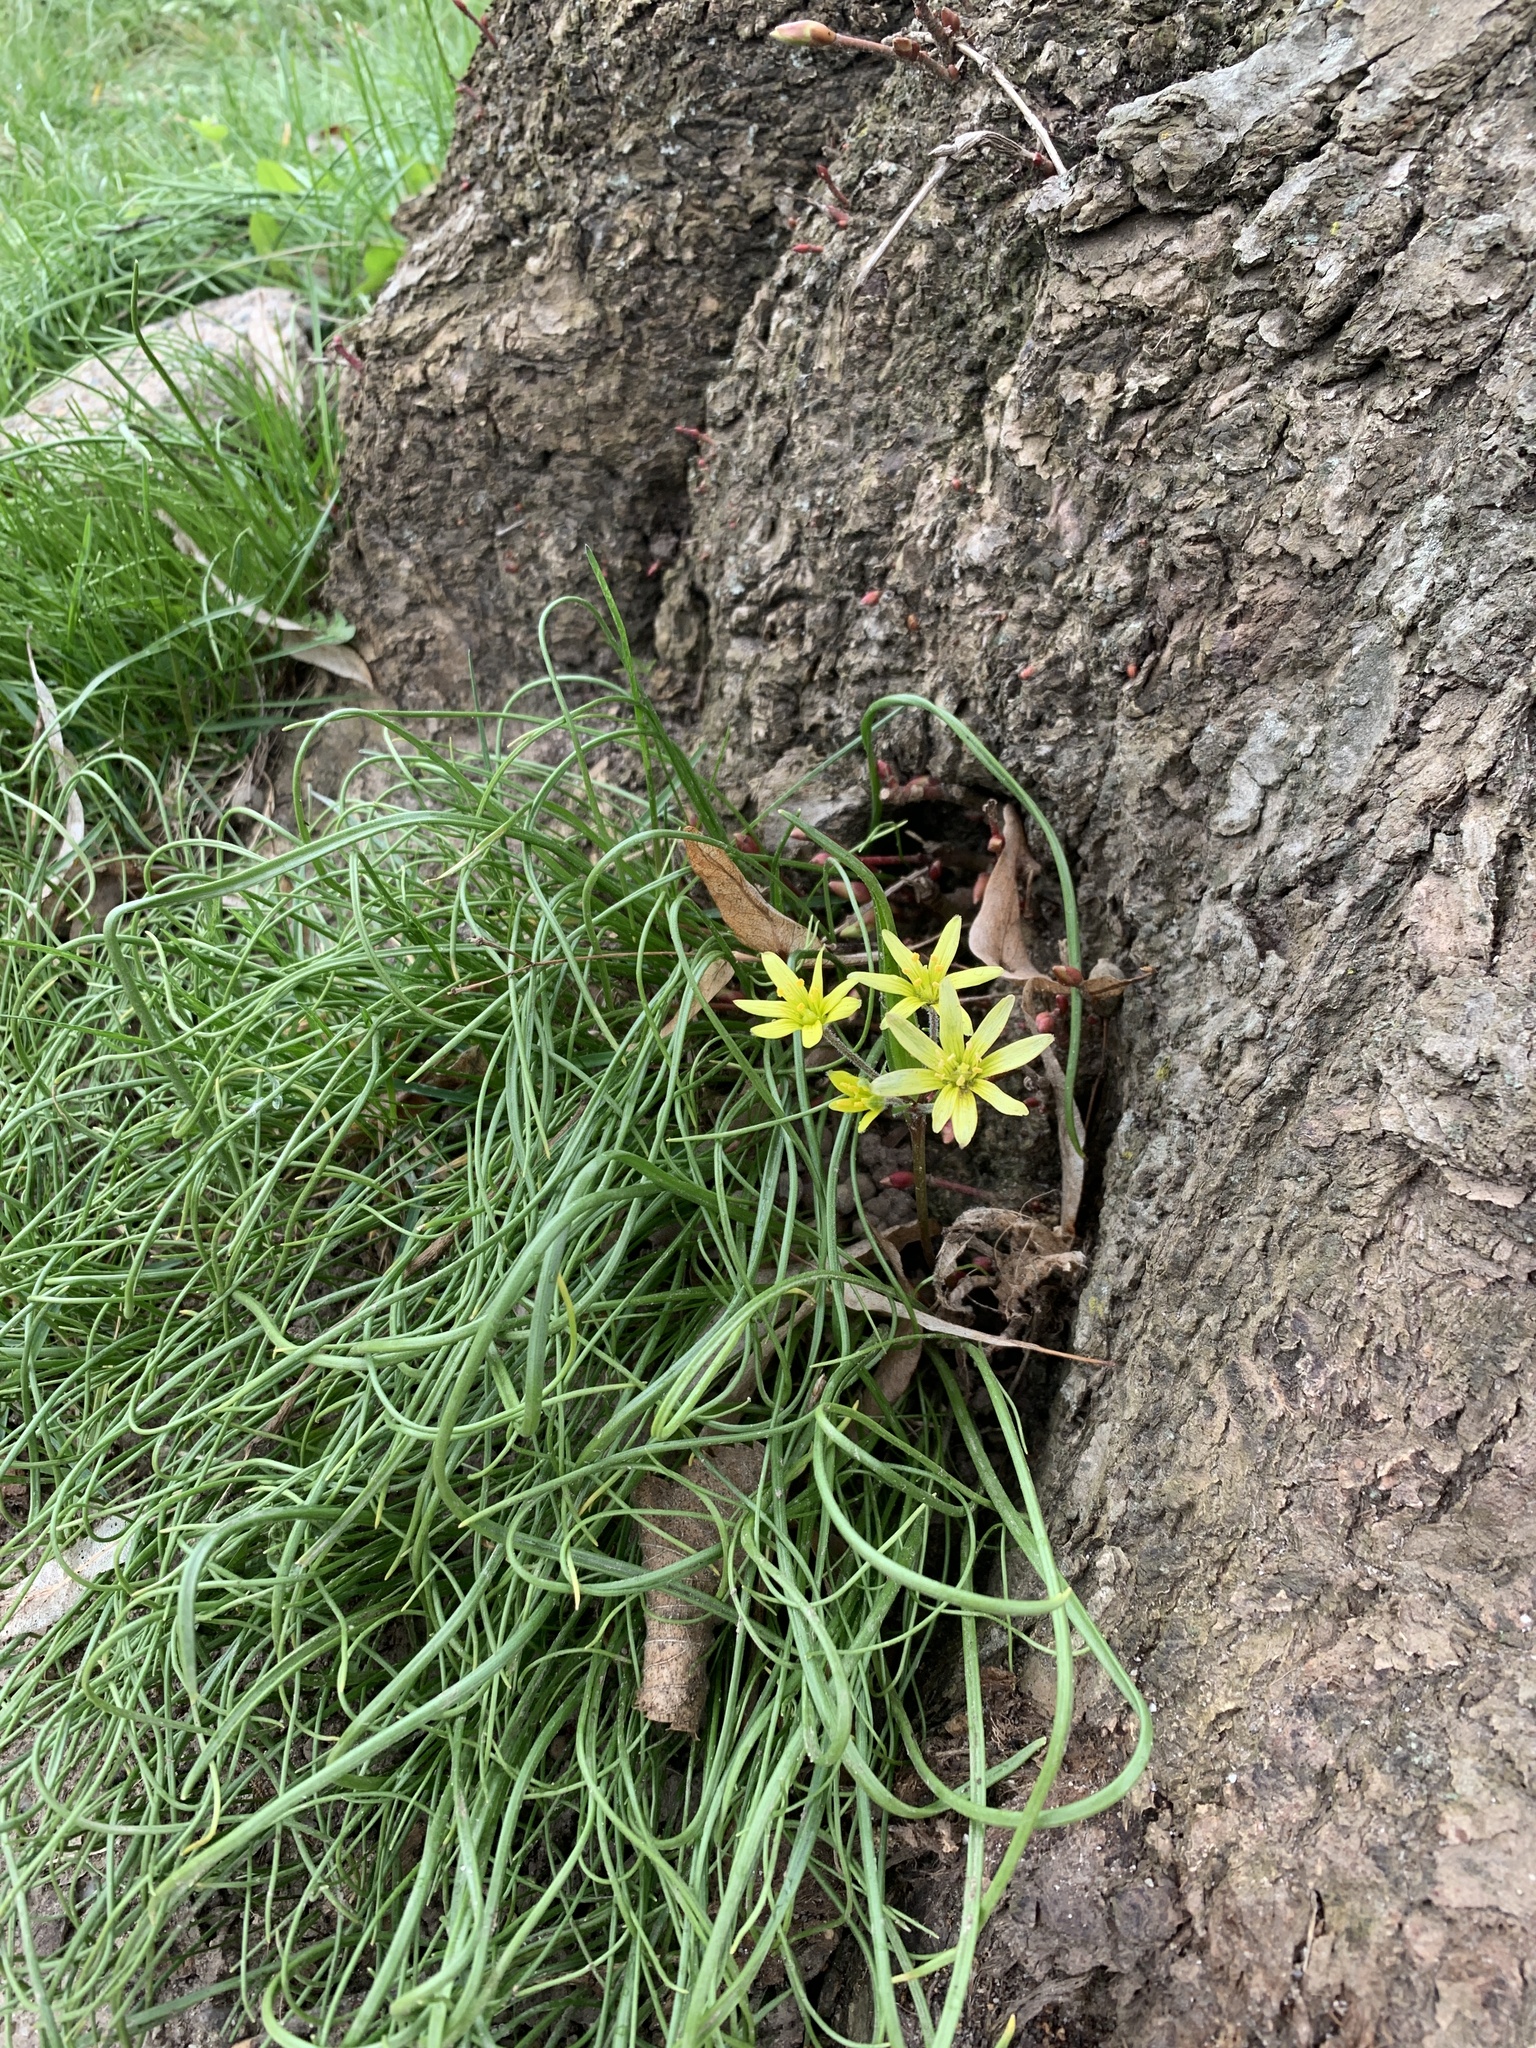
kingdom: Plantae
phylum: Tracheophyta
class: Liliopsida
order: Liliales
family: Liliaceae
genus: Gagea
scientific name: Gagea villosa
